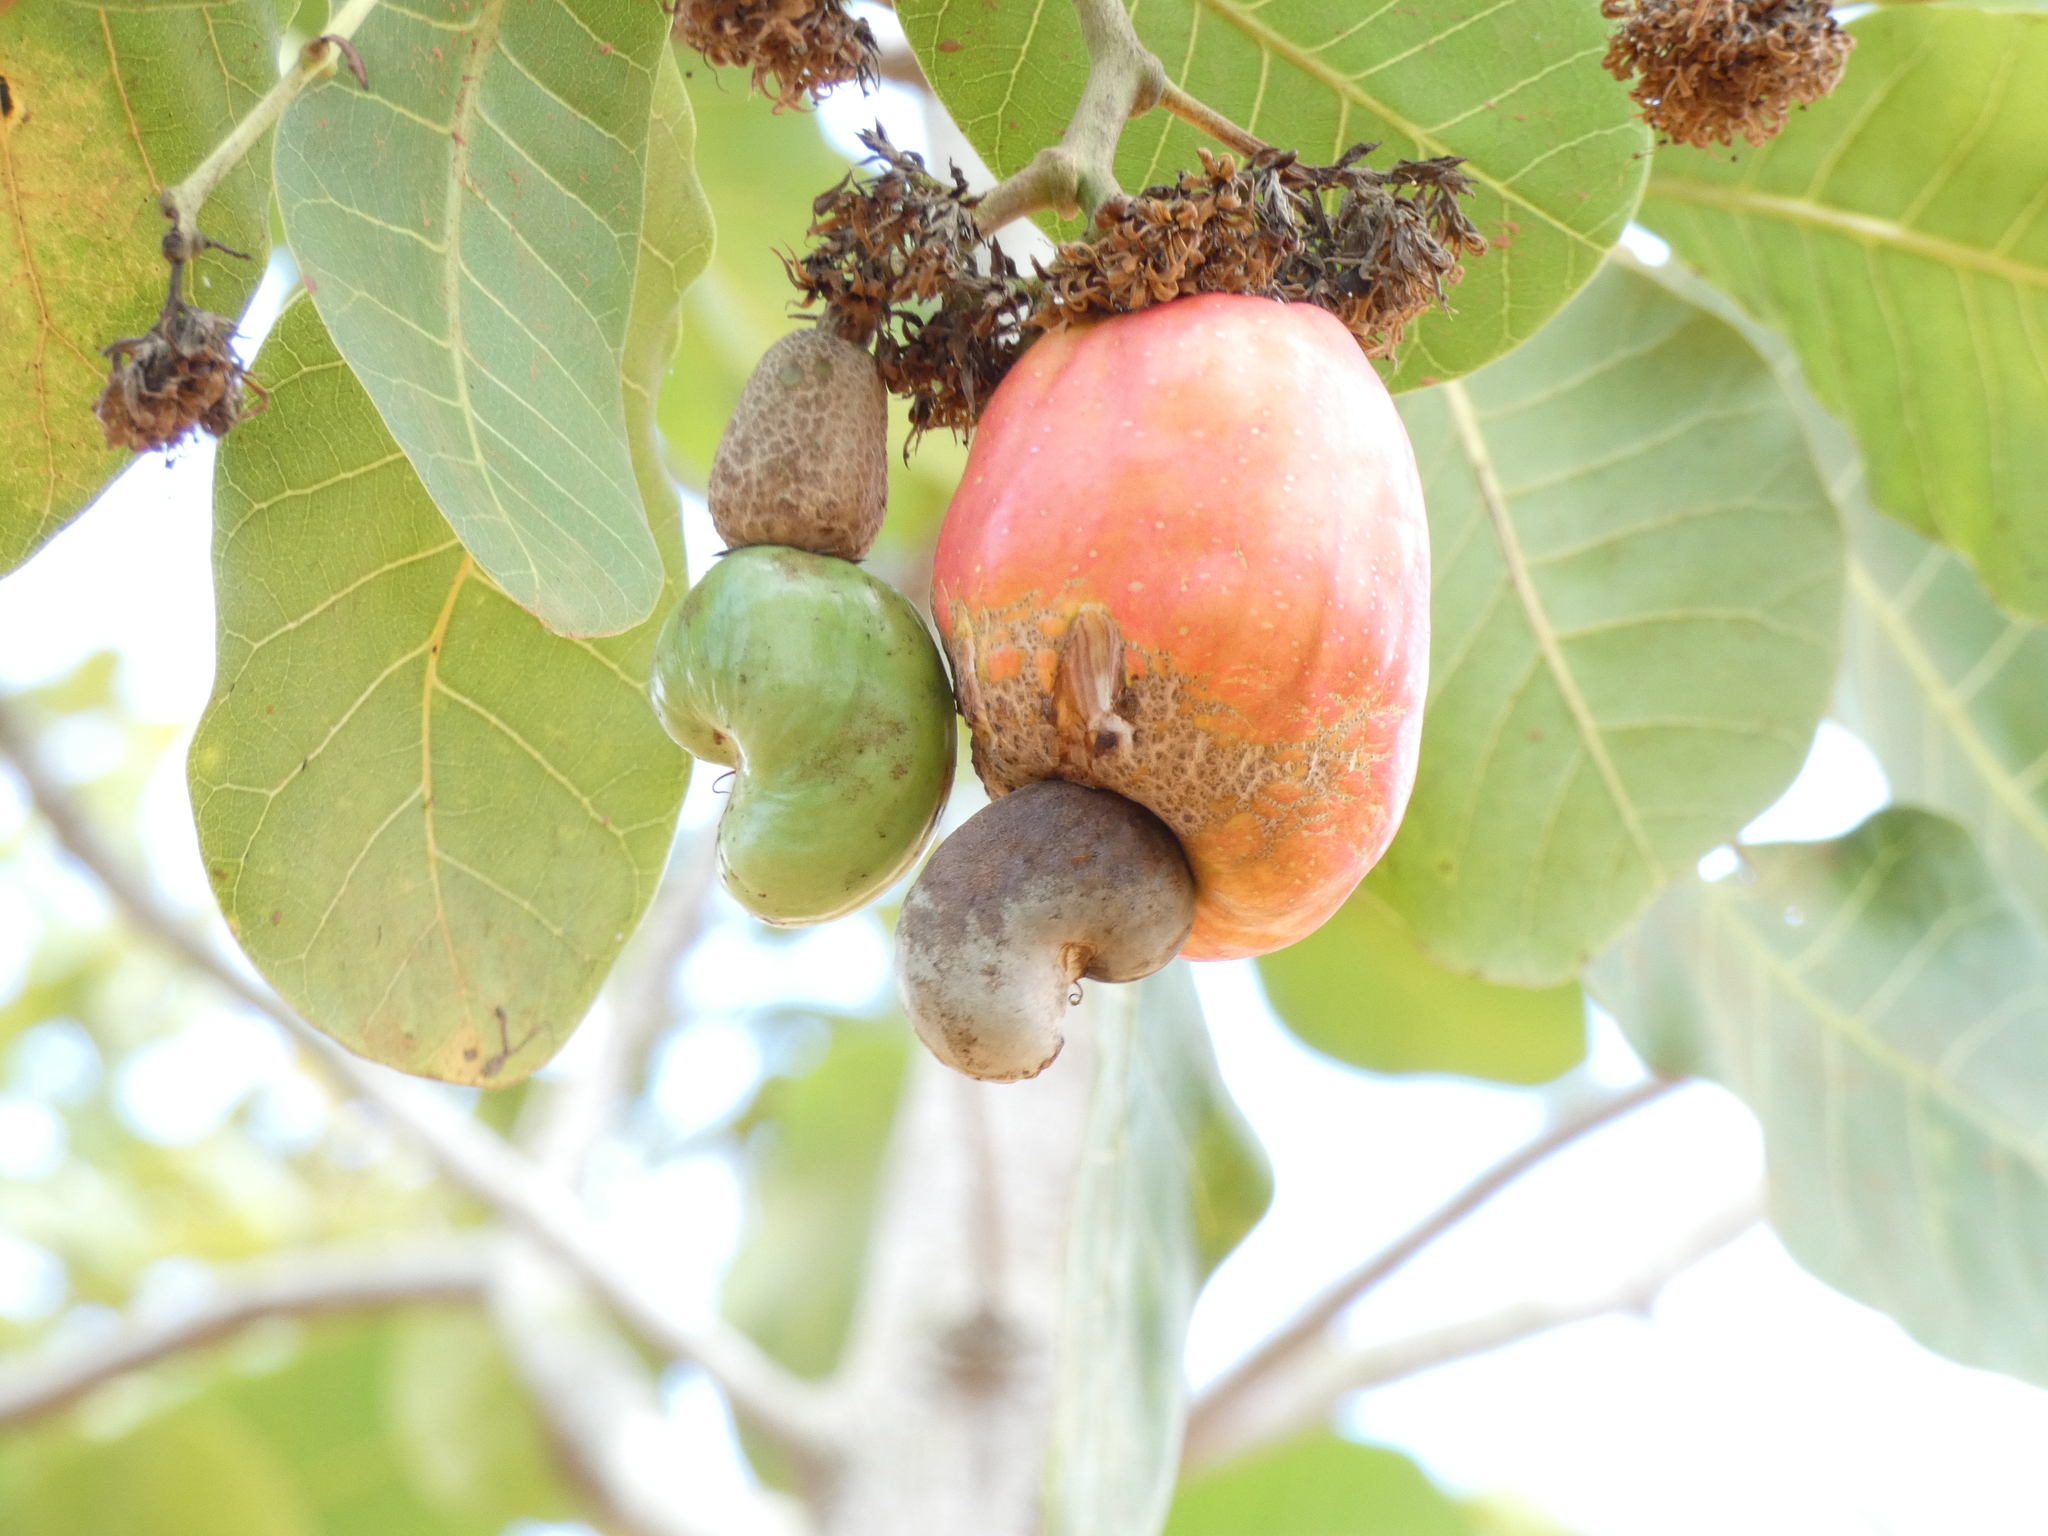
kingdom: Plantae
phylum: Tracheophyta
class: Magnoliopsida
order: Sapindales
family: Anacardiaceae
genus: Anacardium
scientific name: Anacardium occidentale
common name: Cashew
